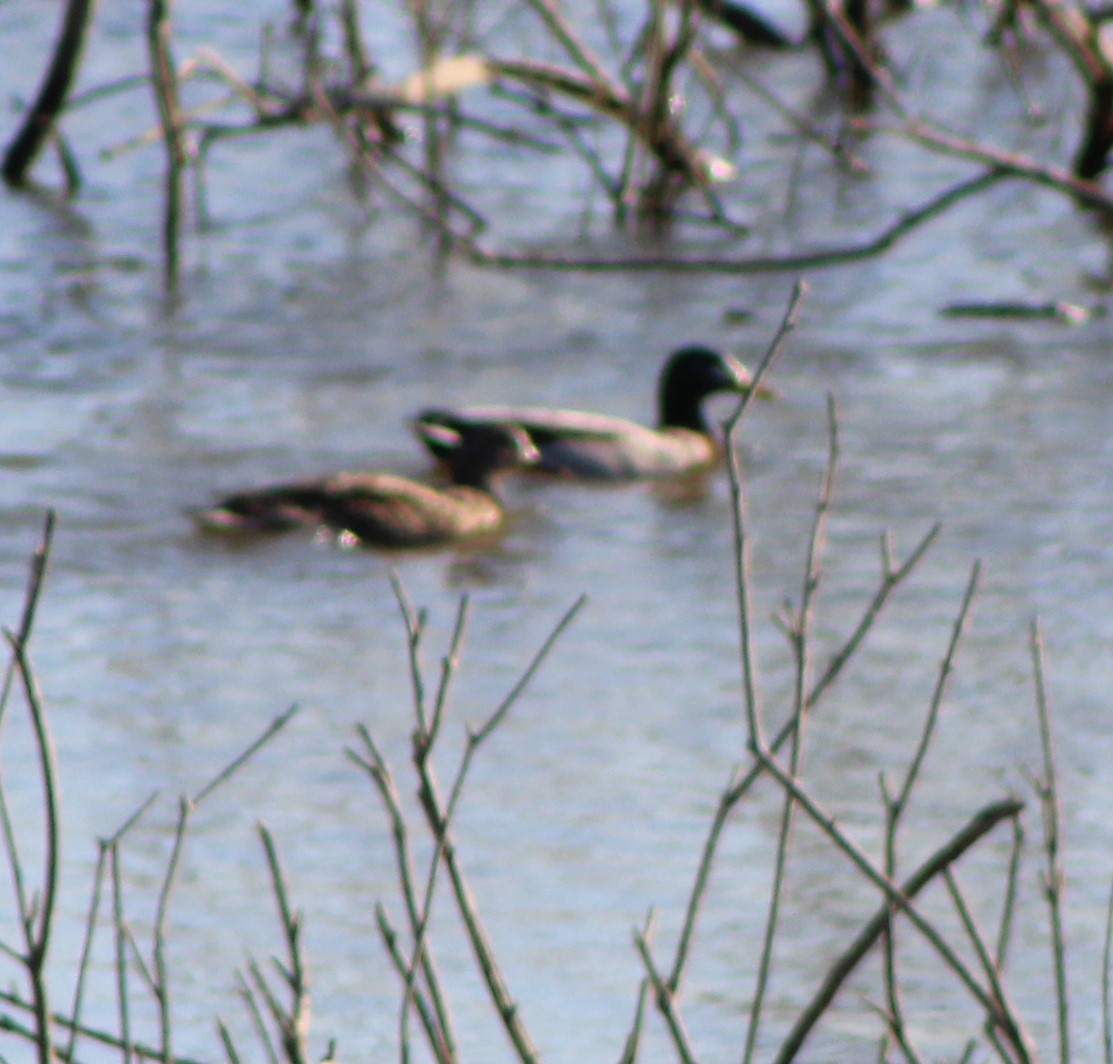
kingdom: Animalia
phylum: Chordata
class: Aves
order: Anseriformes
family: Anatidae
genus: Anas
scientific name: Anas platyrhynchos
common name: Mallard
